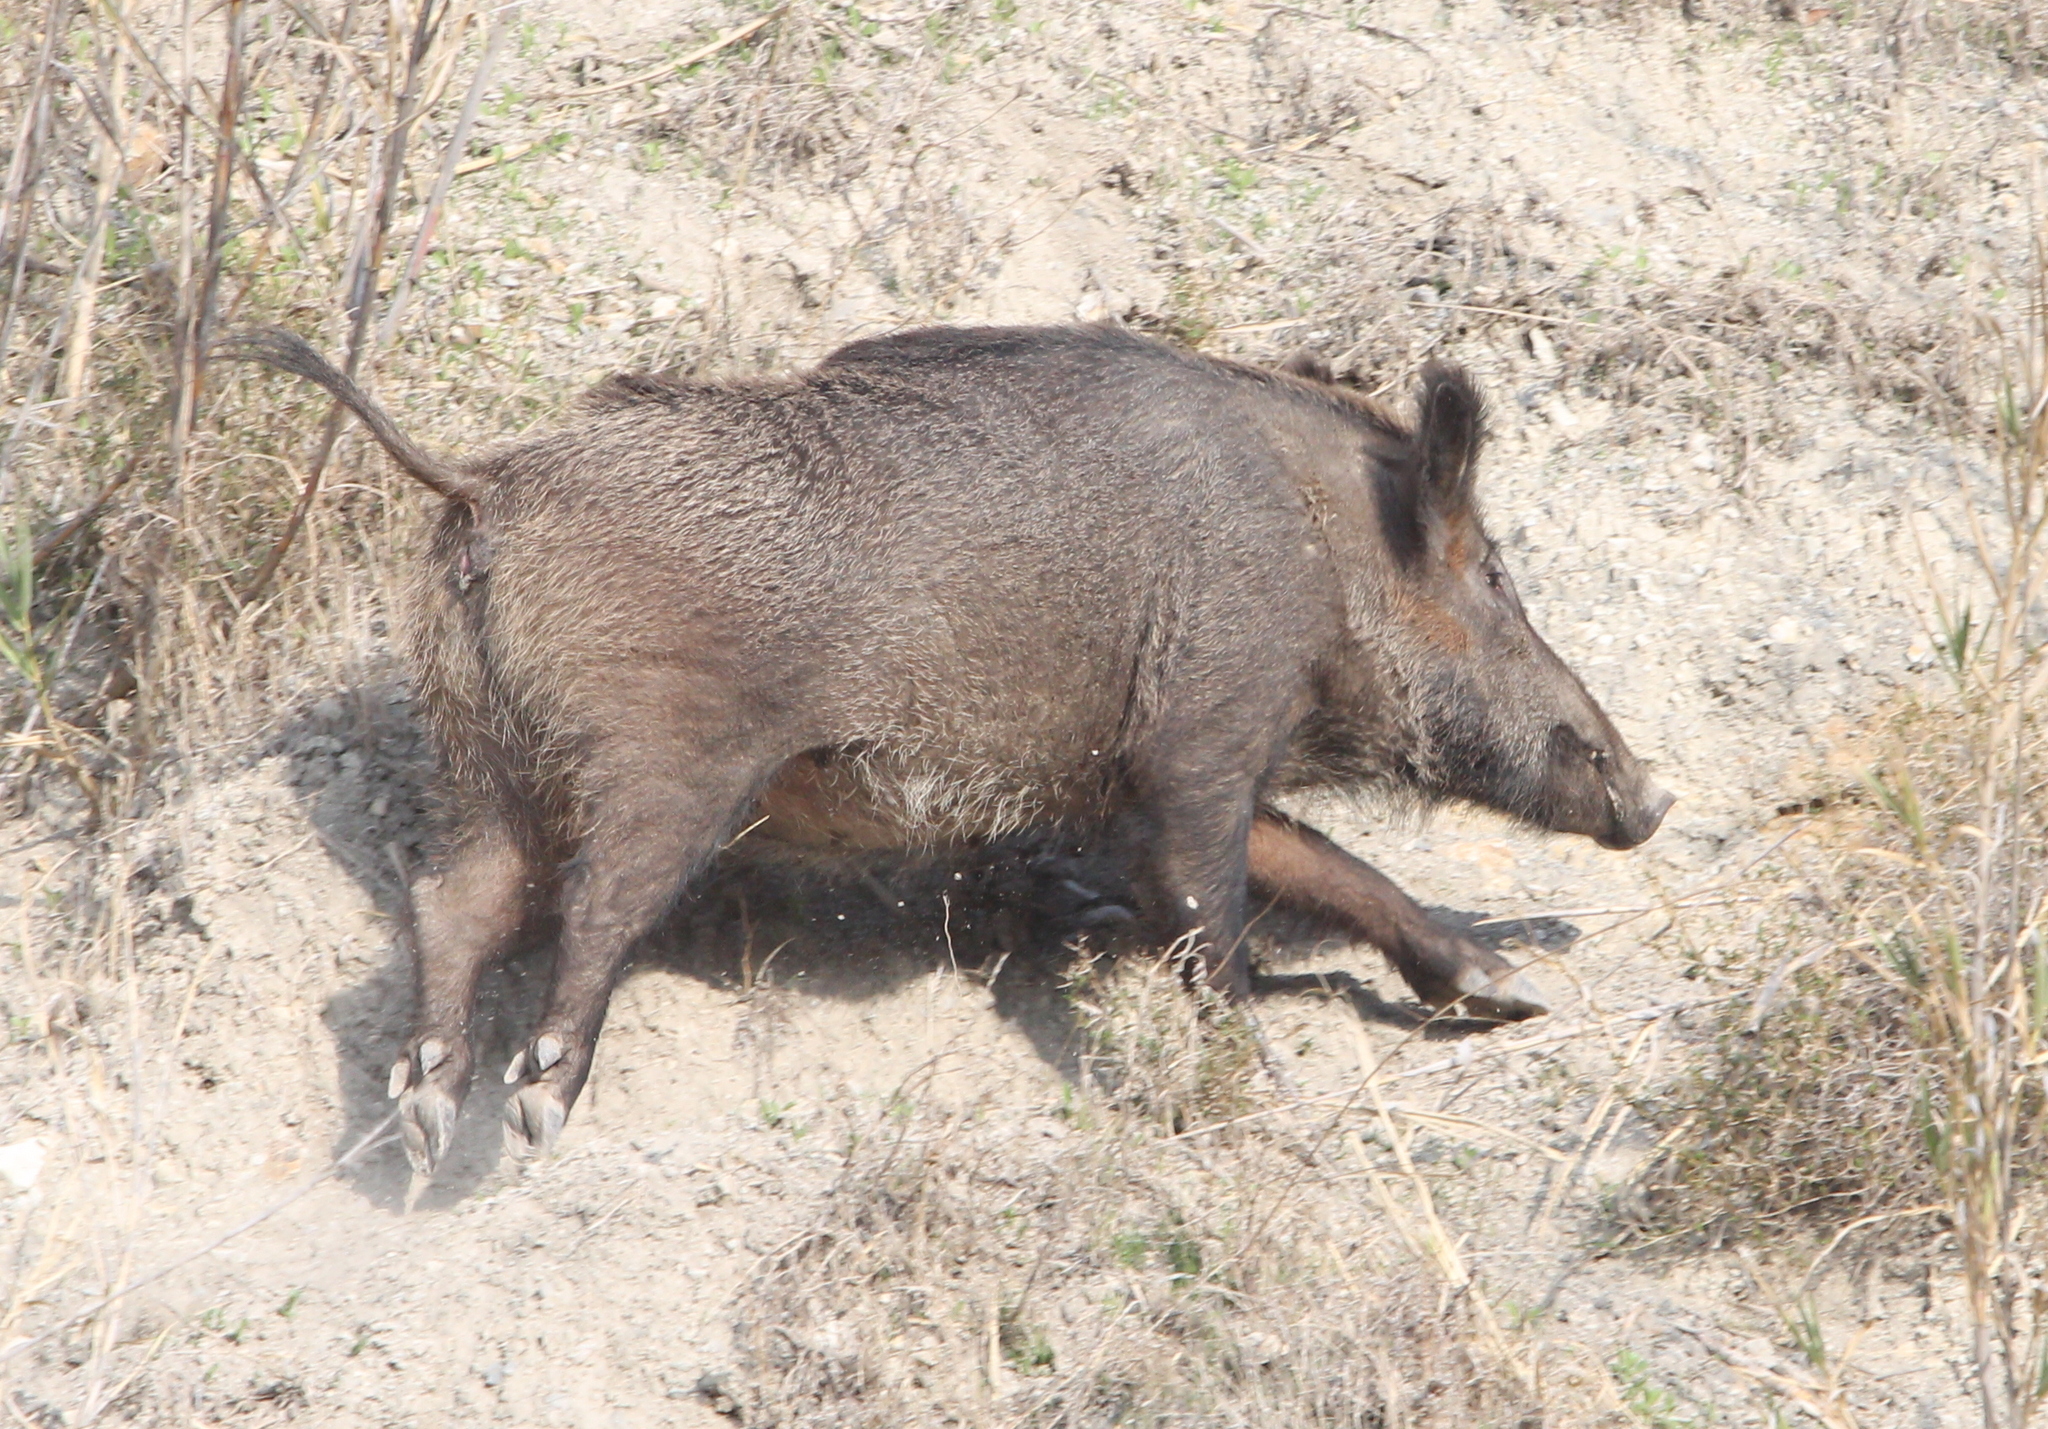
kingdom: Animalia
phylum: Chordata
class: Mammalia
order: Artiodactyla
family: Suidae
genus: Sus
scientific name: Sus scrofa
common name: Wild boar
